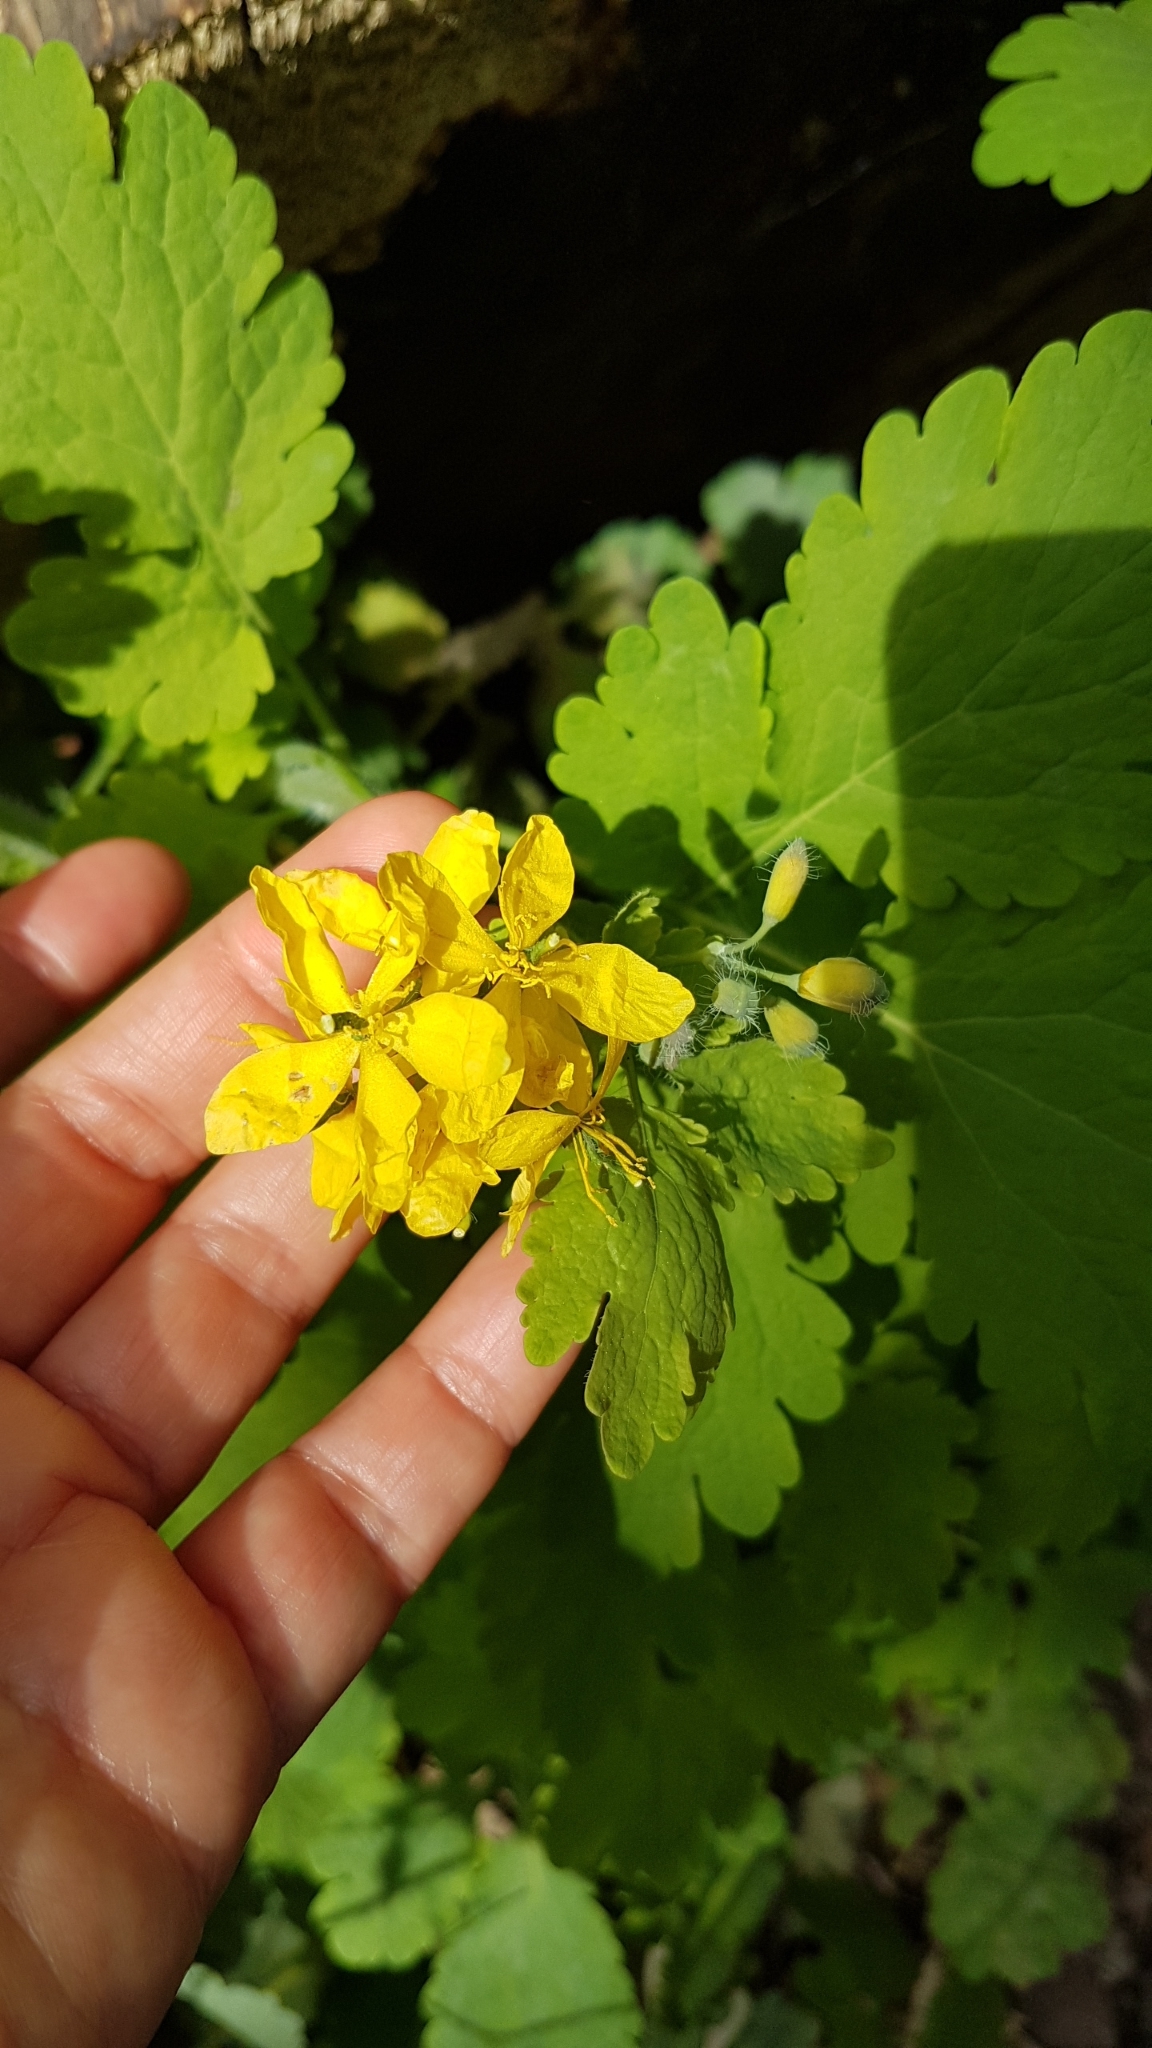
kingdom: Plantae
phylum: Tracheophyta
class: Magnoliopsida
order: Ranunculales
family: Papaveraceae
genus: Chelidonium
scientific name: Chelidonium majus
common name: Greater celandine
